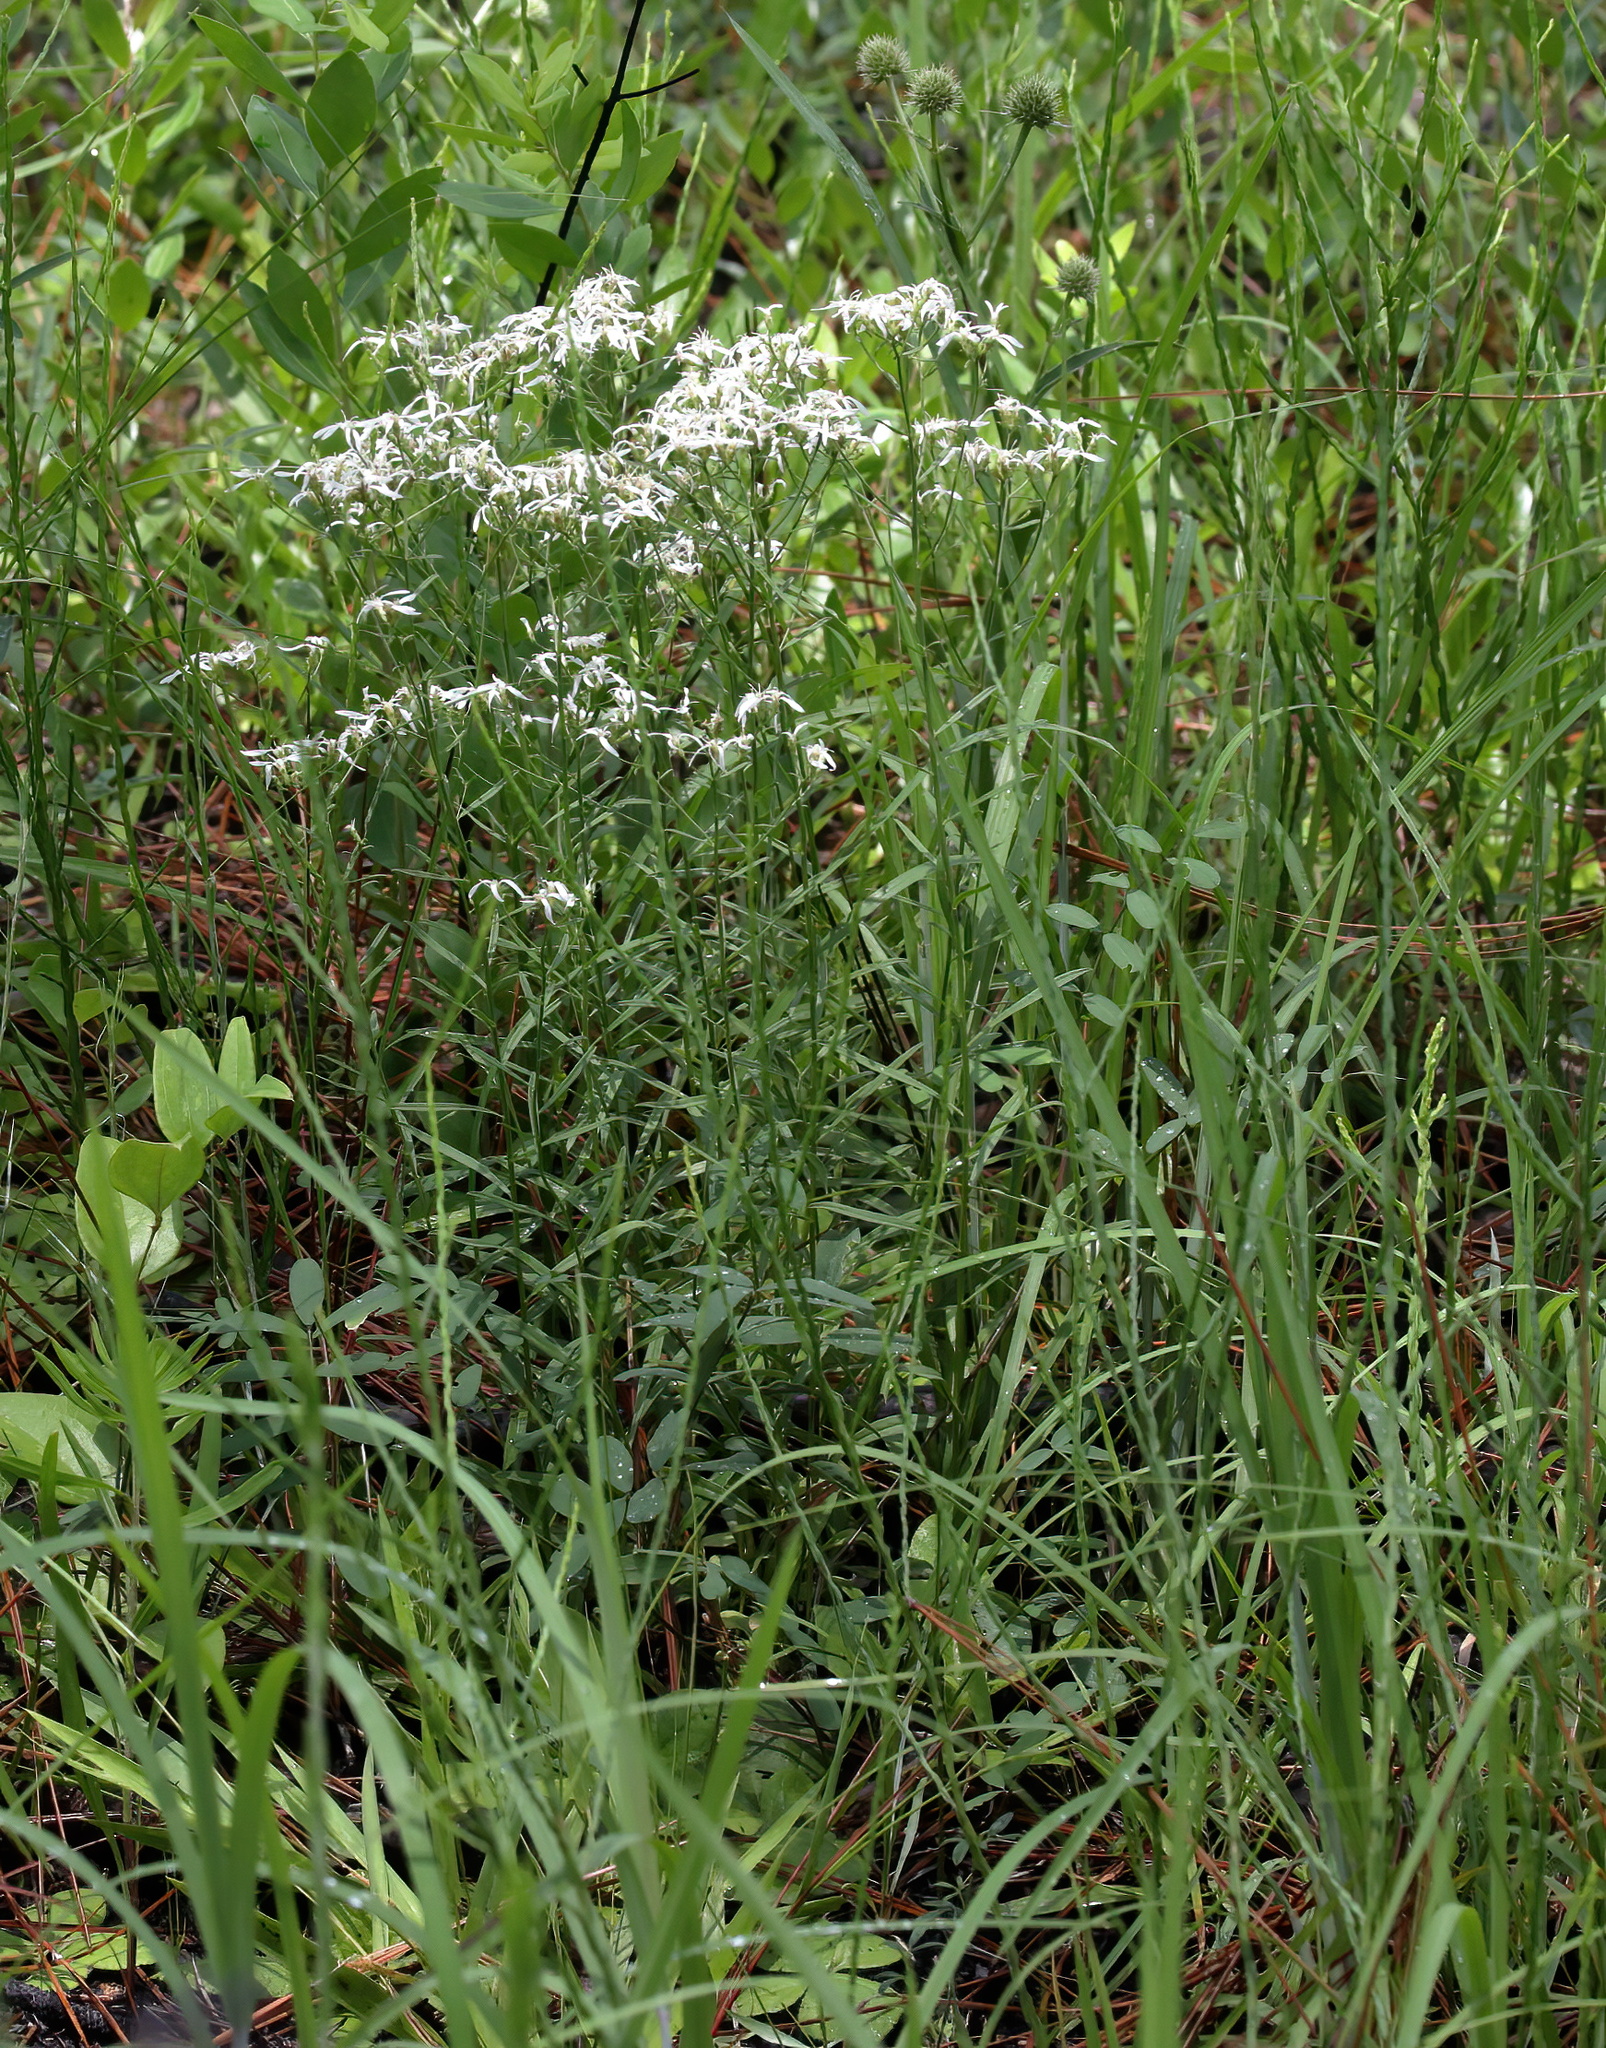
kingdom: Plantae
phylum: Tracheophyta
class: Magnoliopsida
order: Asterales
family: Asteraceae
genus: Sericocarpus
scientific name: Sericocarpus linifolius
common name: Narrow-leaf aster
